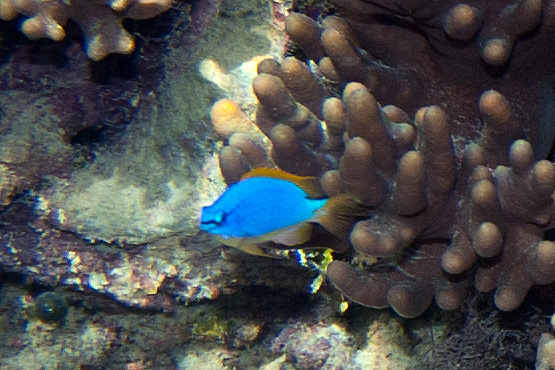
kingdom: Animalia
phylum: Chordata
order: Perciformes
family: Pomacentridae
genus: Chrysiptera
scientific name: Chrysiptera taupou
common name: Fiji damsel
